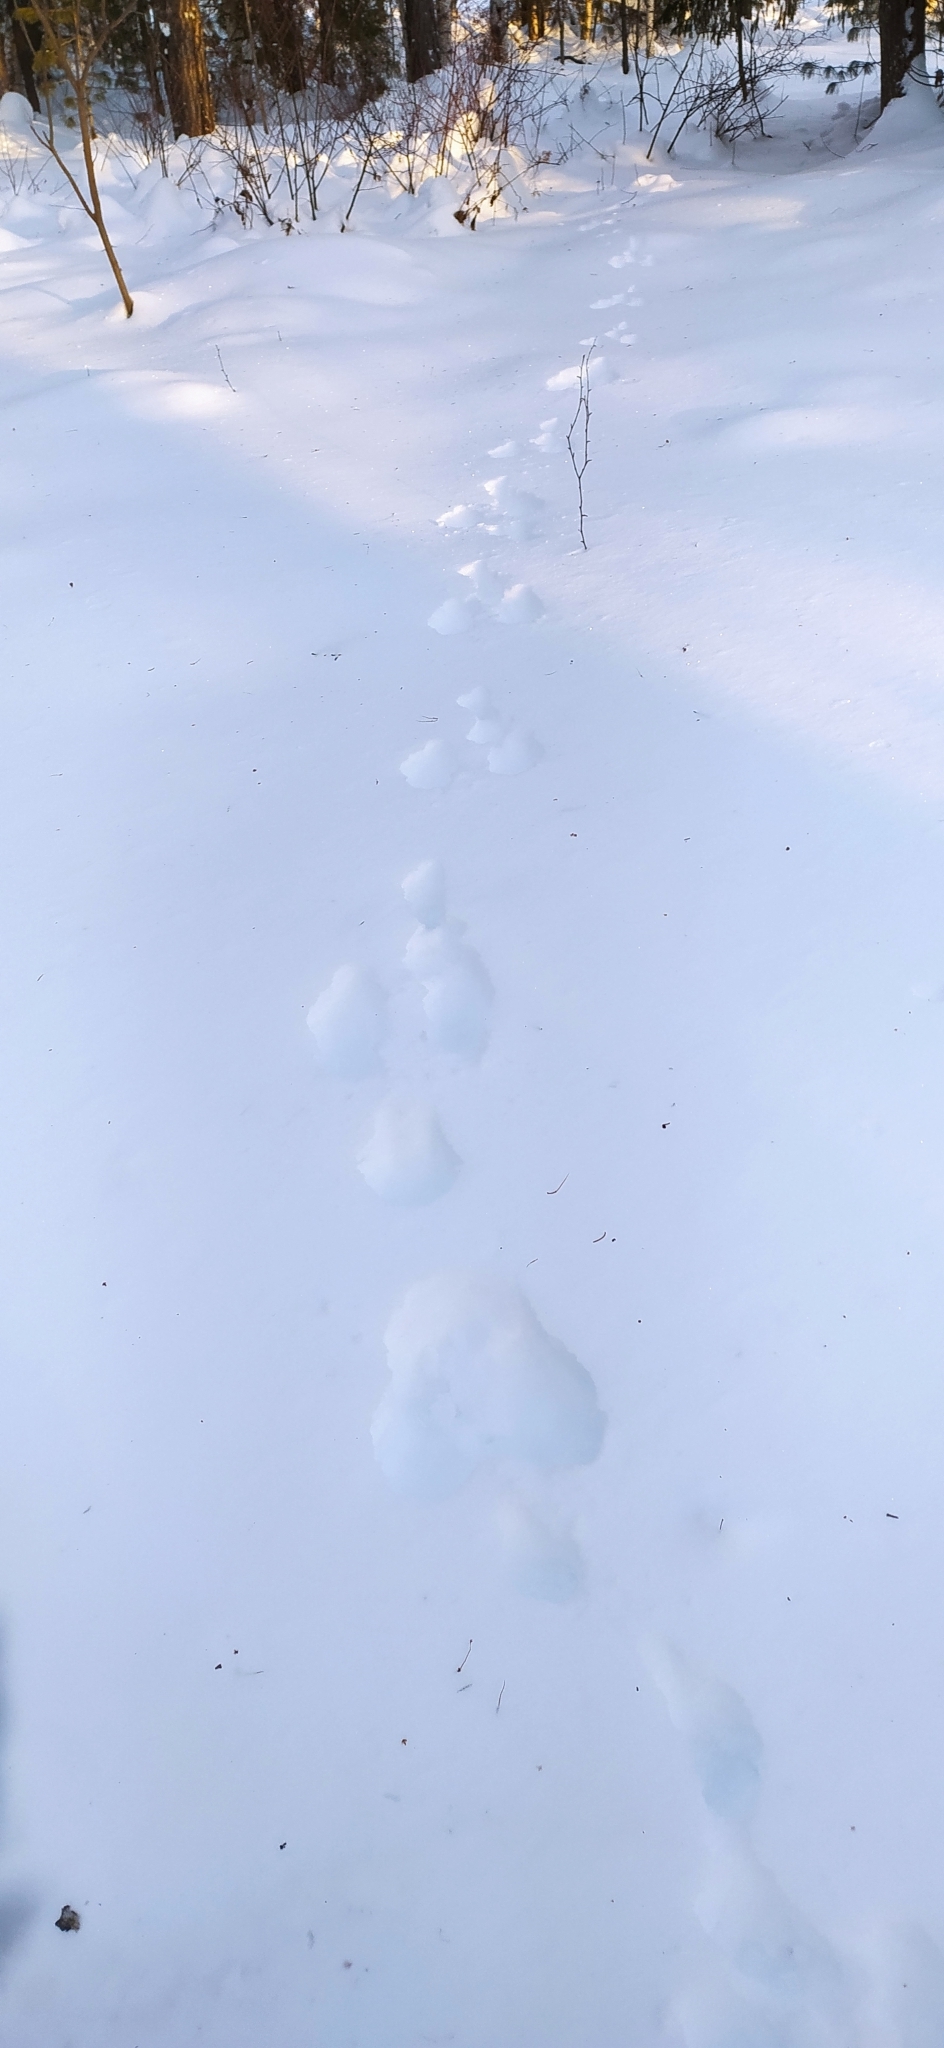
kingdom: Animalia
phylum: Chordata
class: Mammalia
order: Lagomorpha
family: Leporidae
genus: Lepus
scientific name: Lepus timidus
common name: Mountain hare
